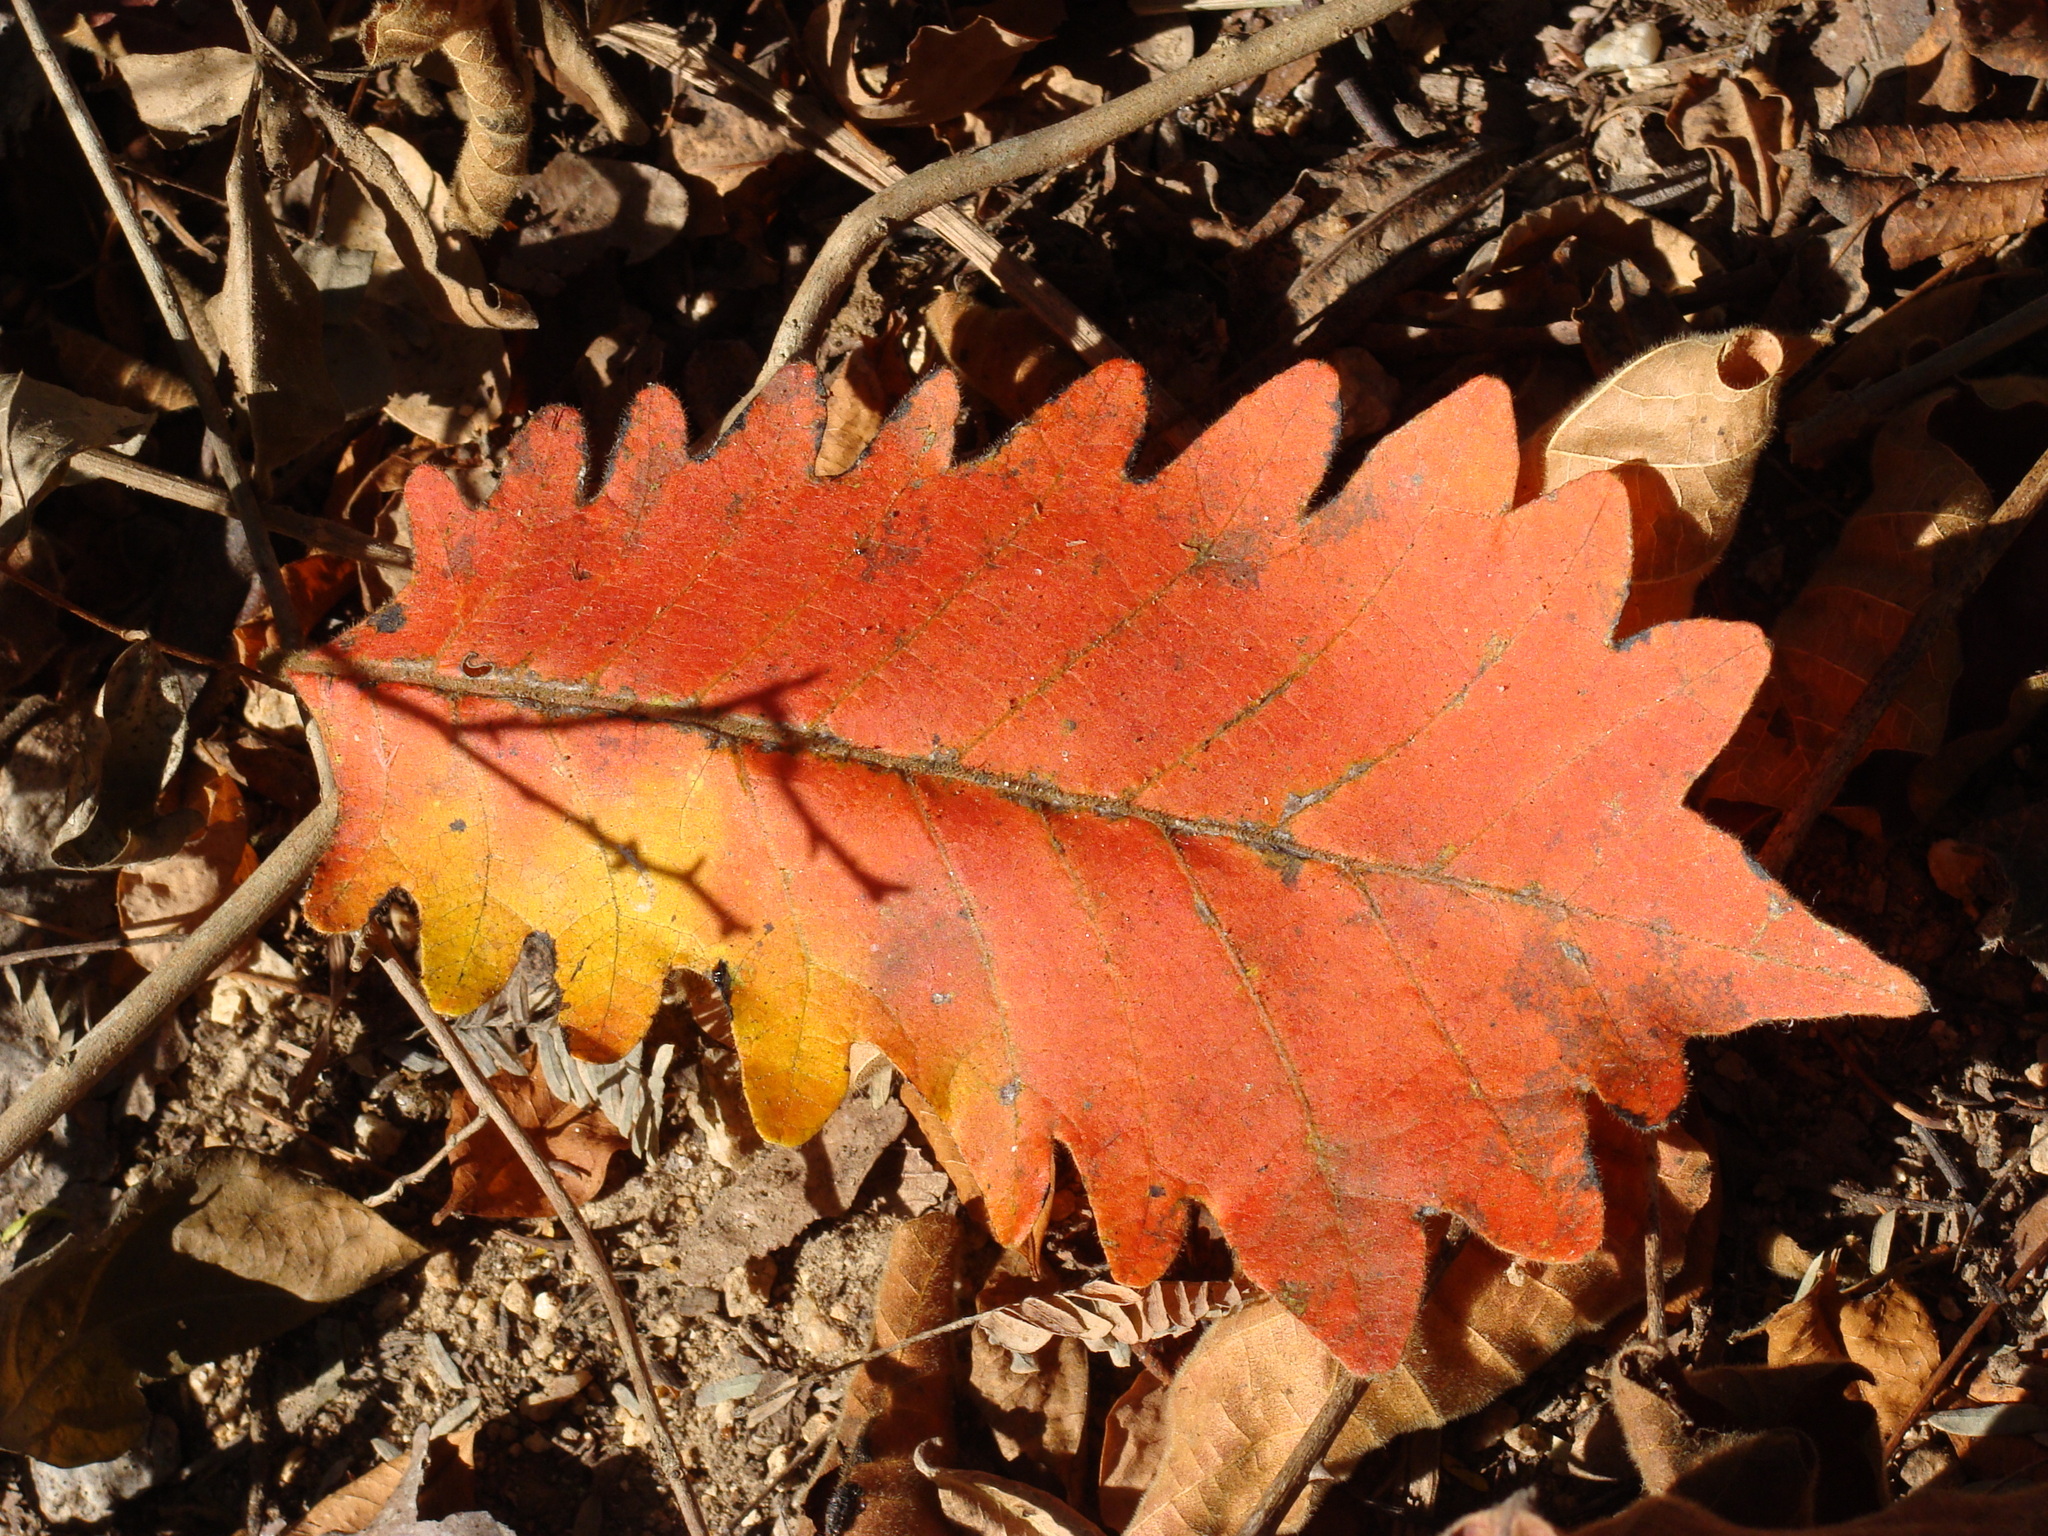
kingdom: Plantae
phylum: Tracheophyta
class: Magnoliopsida
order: Sapindales
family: Anacardiaceae
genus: Comocladia
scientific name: Comocladia macrophylla
